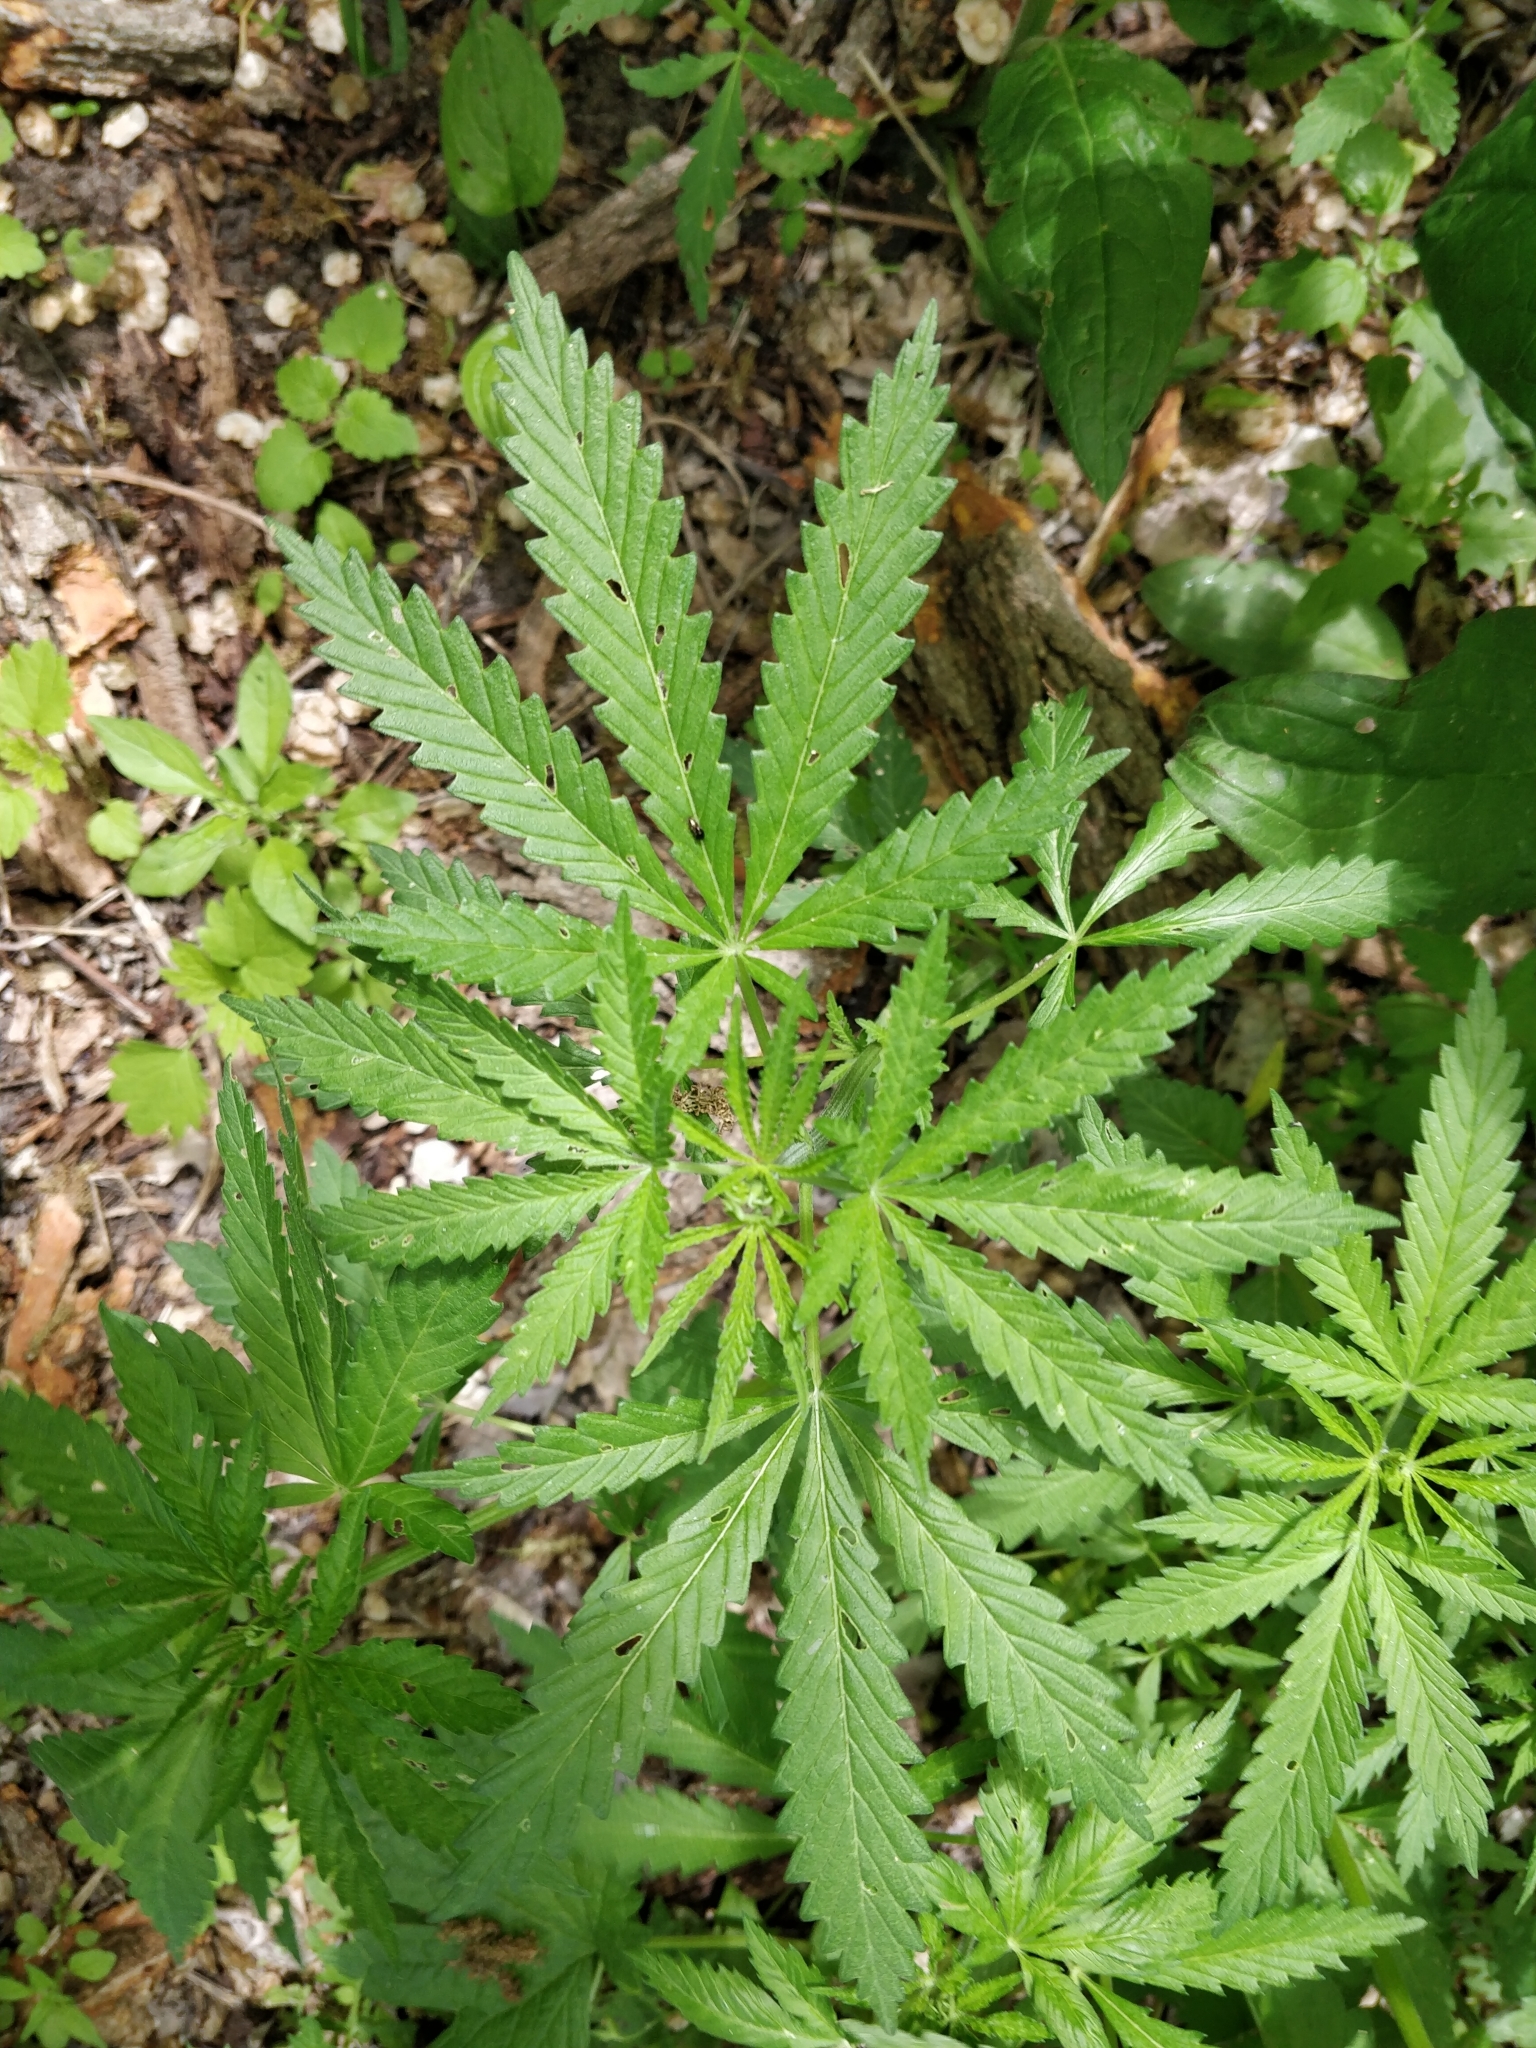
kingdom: Plantae
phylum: Tracheophyta
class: Magnoliopsida
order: Rosales
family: Cannabaceae
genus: Cannabis
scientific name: Cannabis sativa
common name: Hemp
